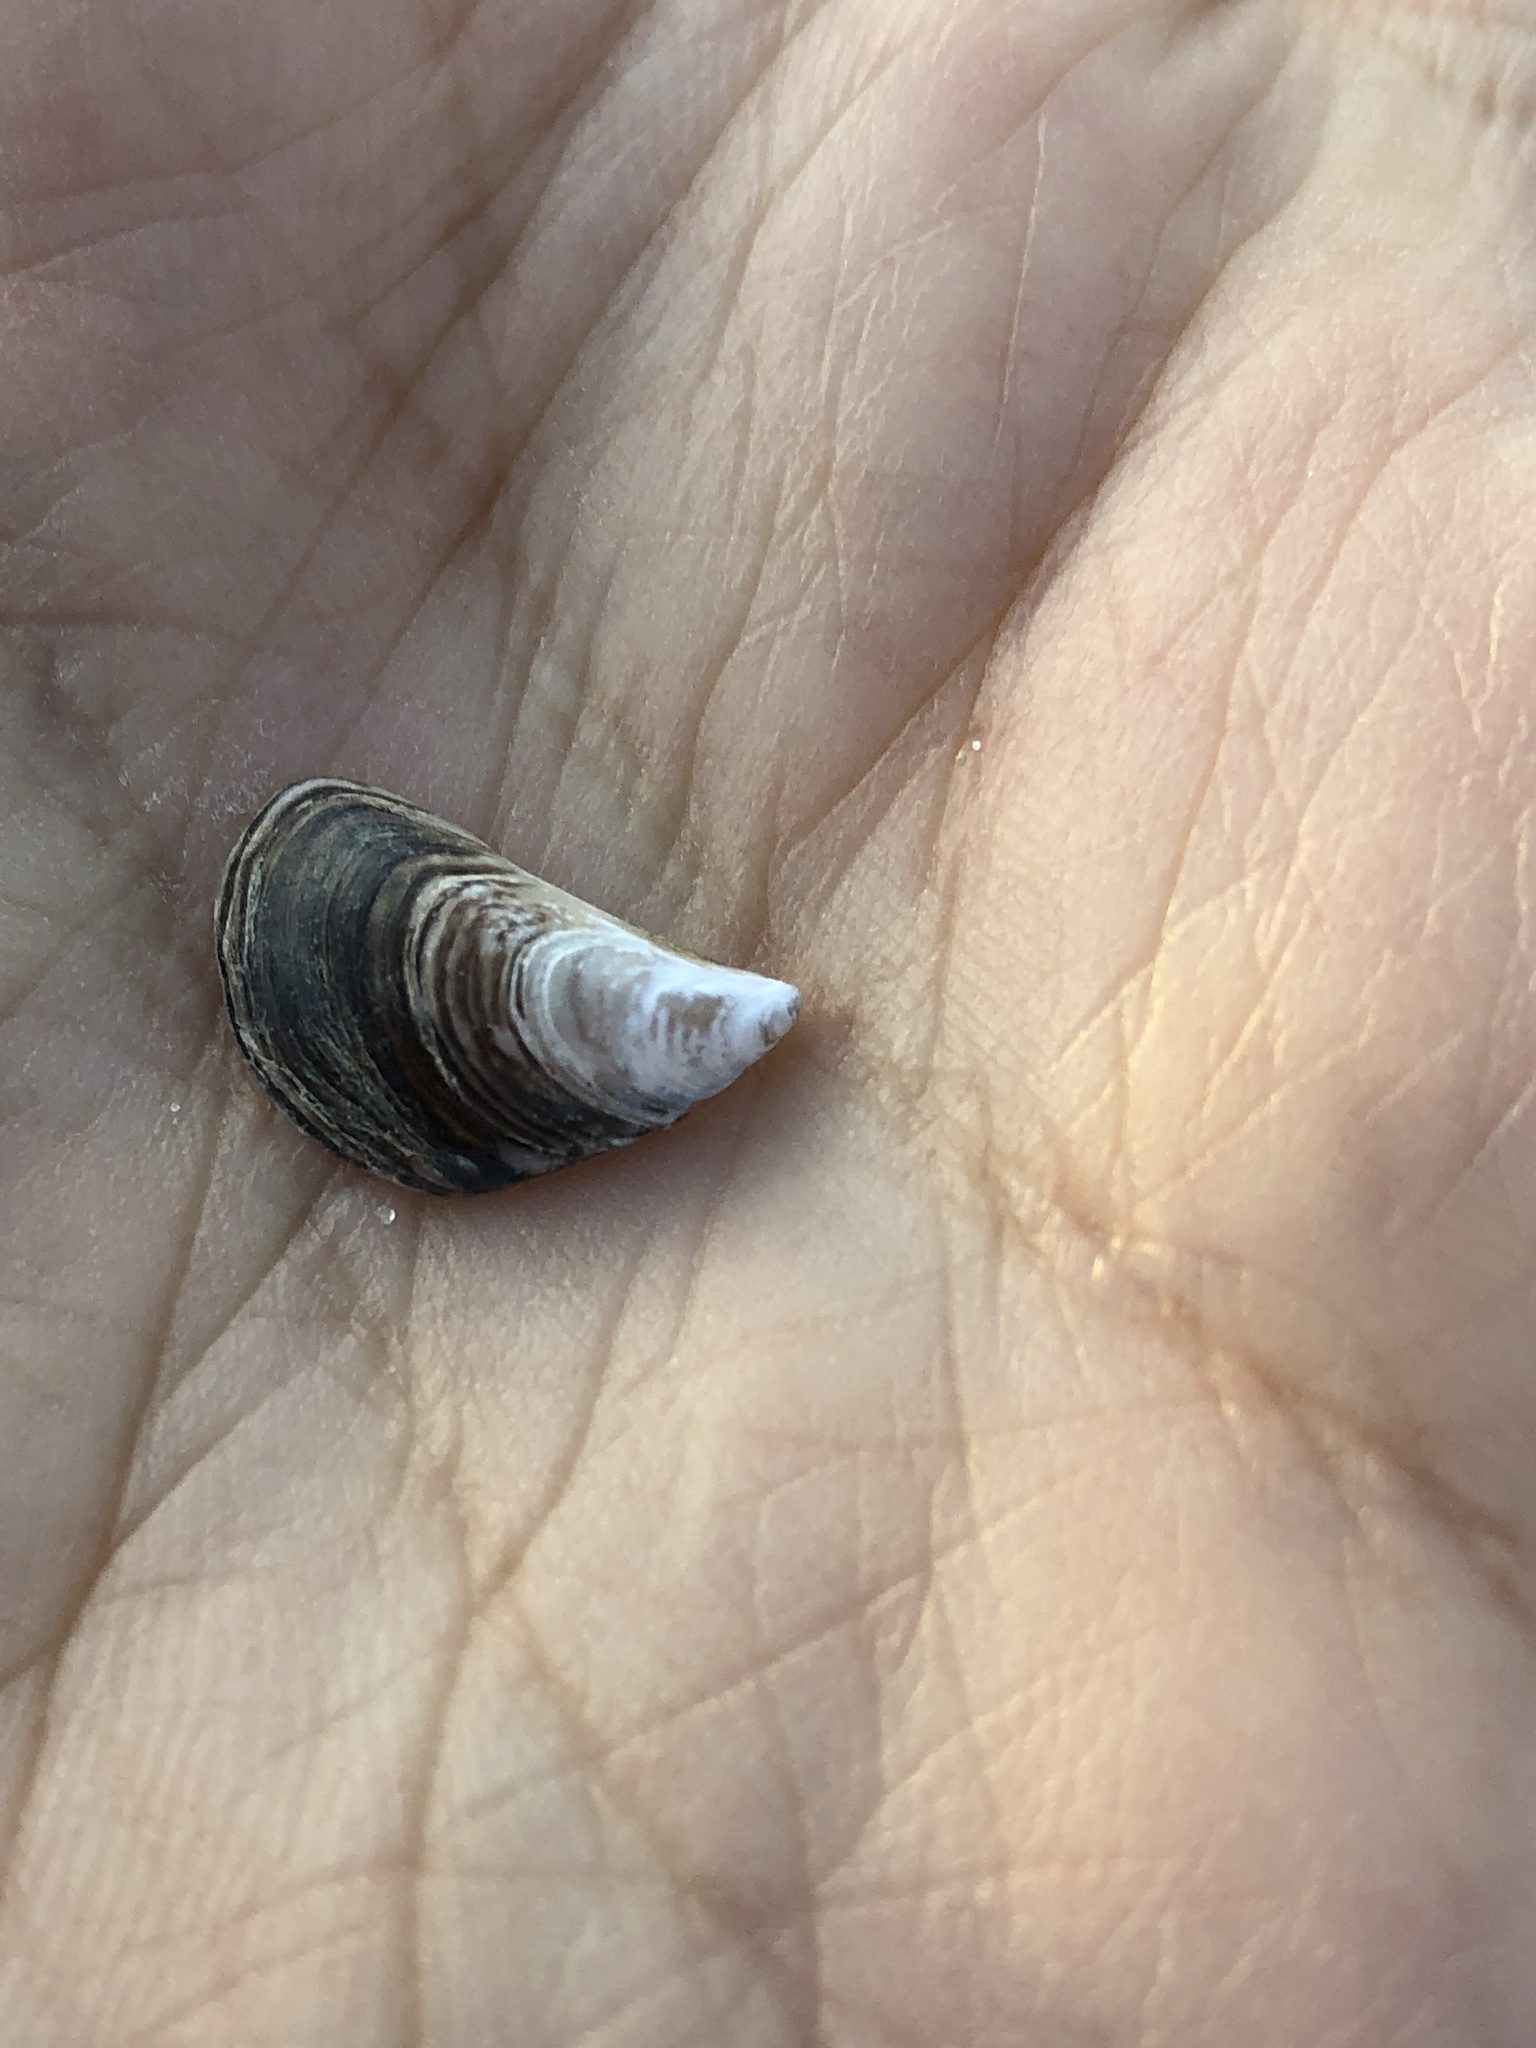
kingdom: Animalia
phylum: Mollusca
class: Bivalvia
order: Myida
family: Dreissenidae
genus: Dreissena
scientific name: Dreissena bugensis
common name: Quagga mussel
